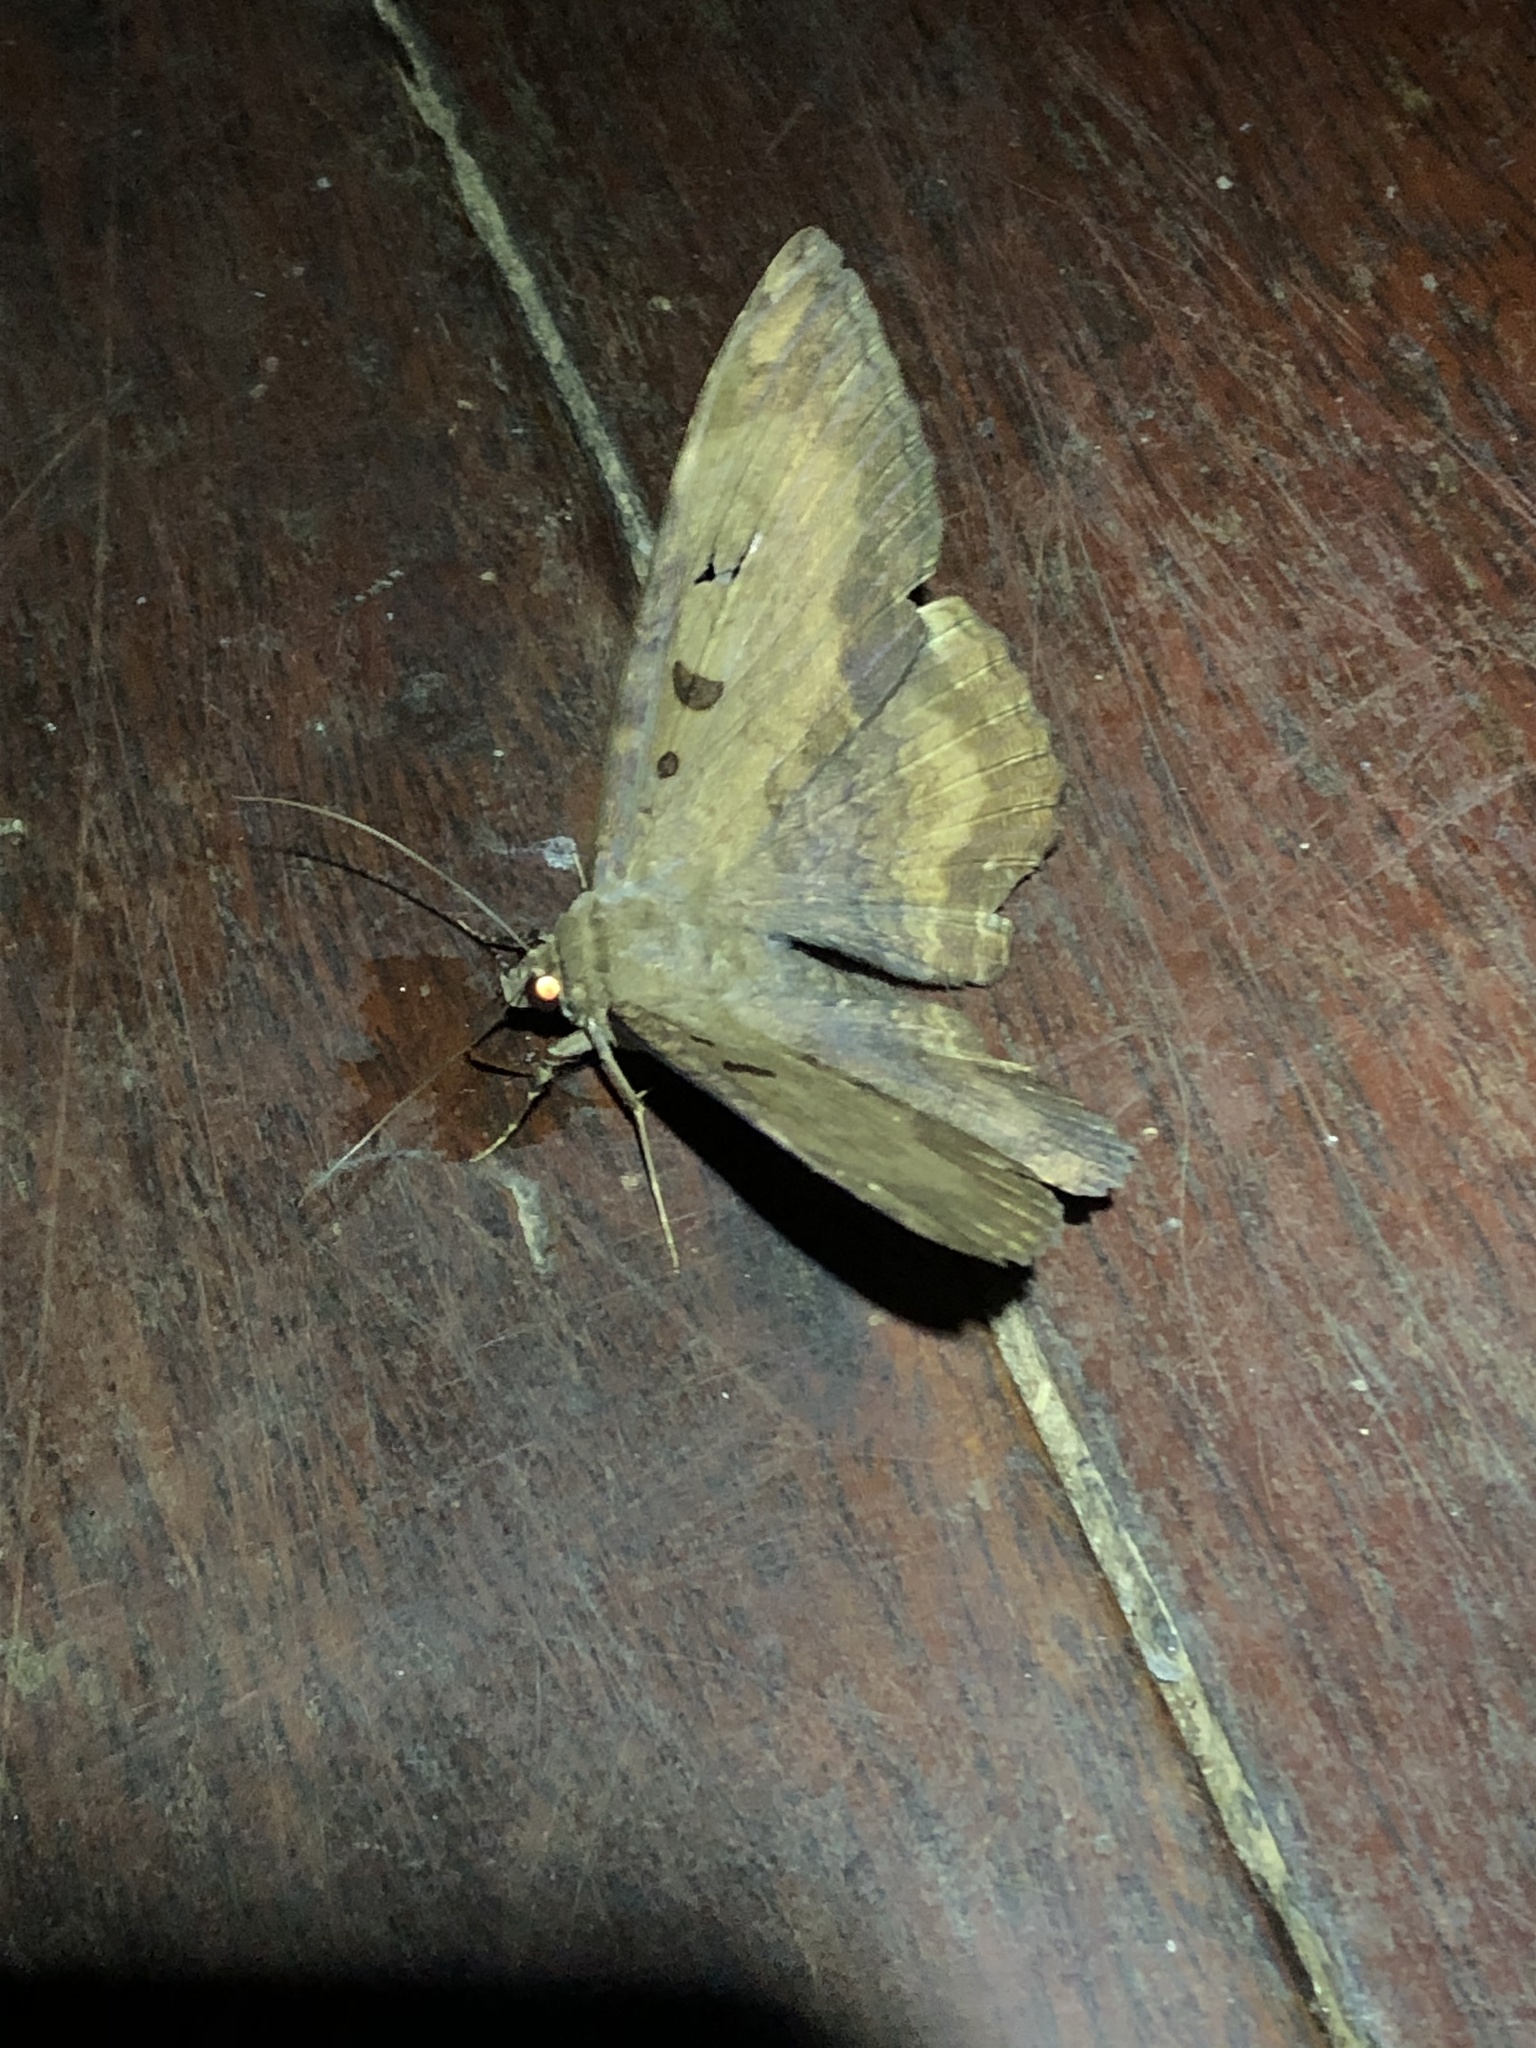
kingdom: Animalia
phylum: Arthropoda
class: Insecta
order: Lepidoptera
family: Erebidae
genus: Feigeria
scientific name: Feigeria magna
